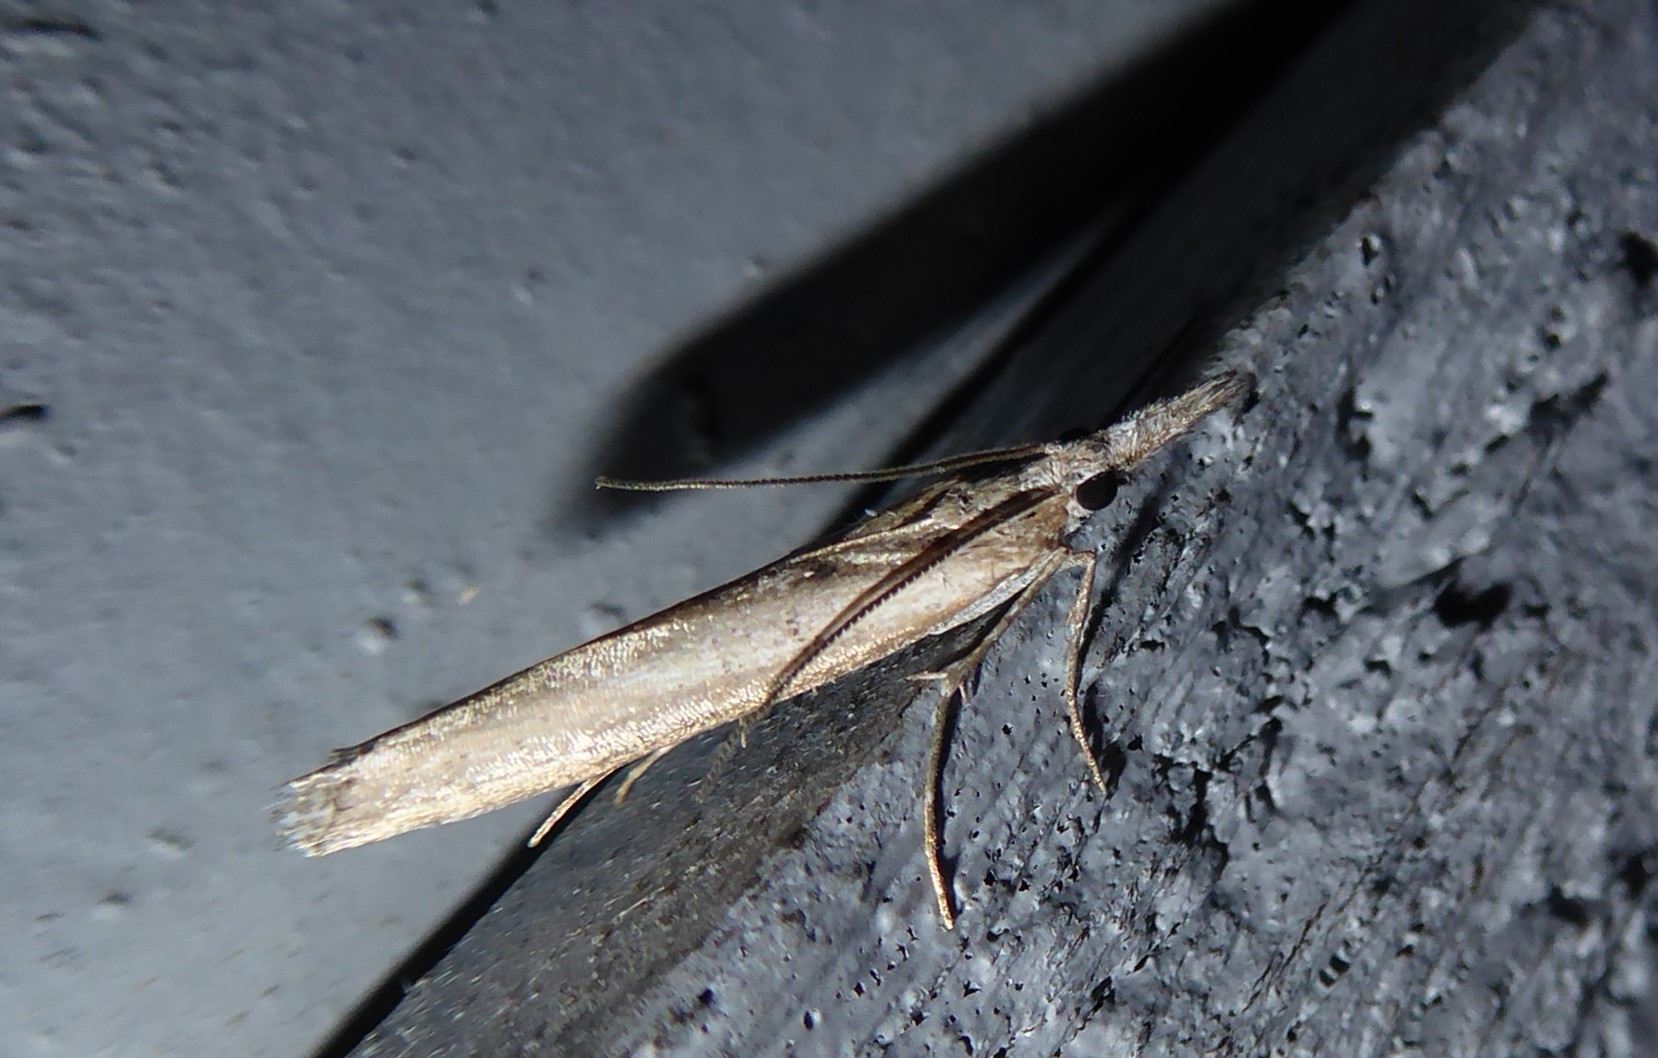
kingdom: Animalia
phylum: Arthropoda
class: Insecta
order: Lepidoptera
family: Crambidae
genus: Orocrambus
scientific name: Orocrambus cyclopicus
